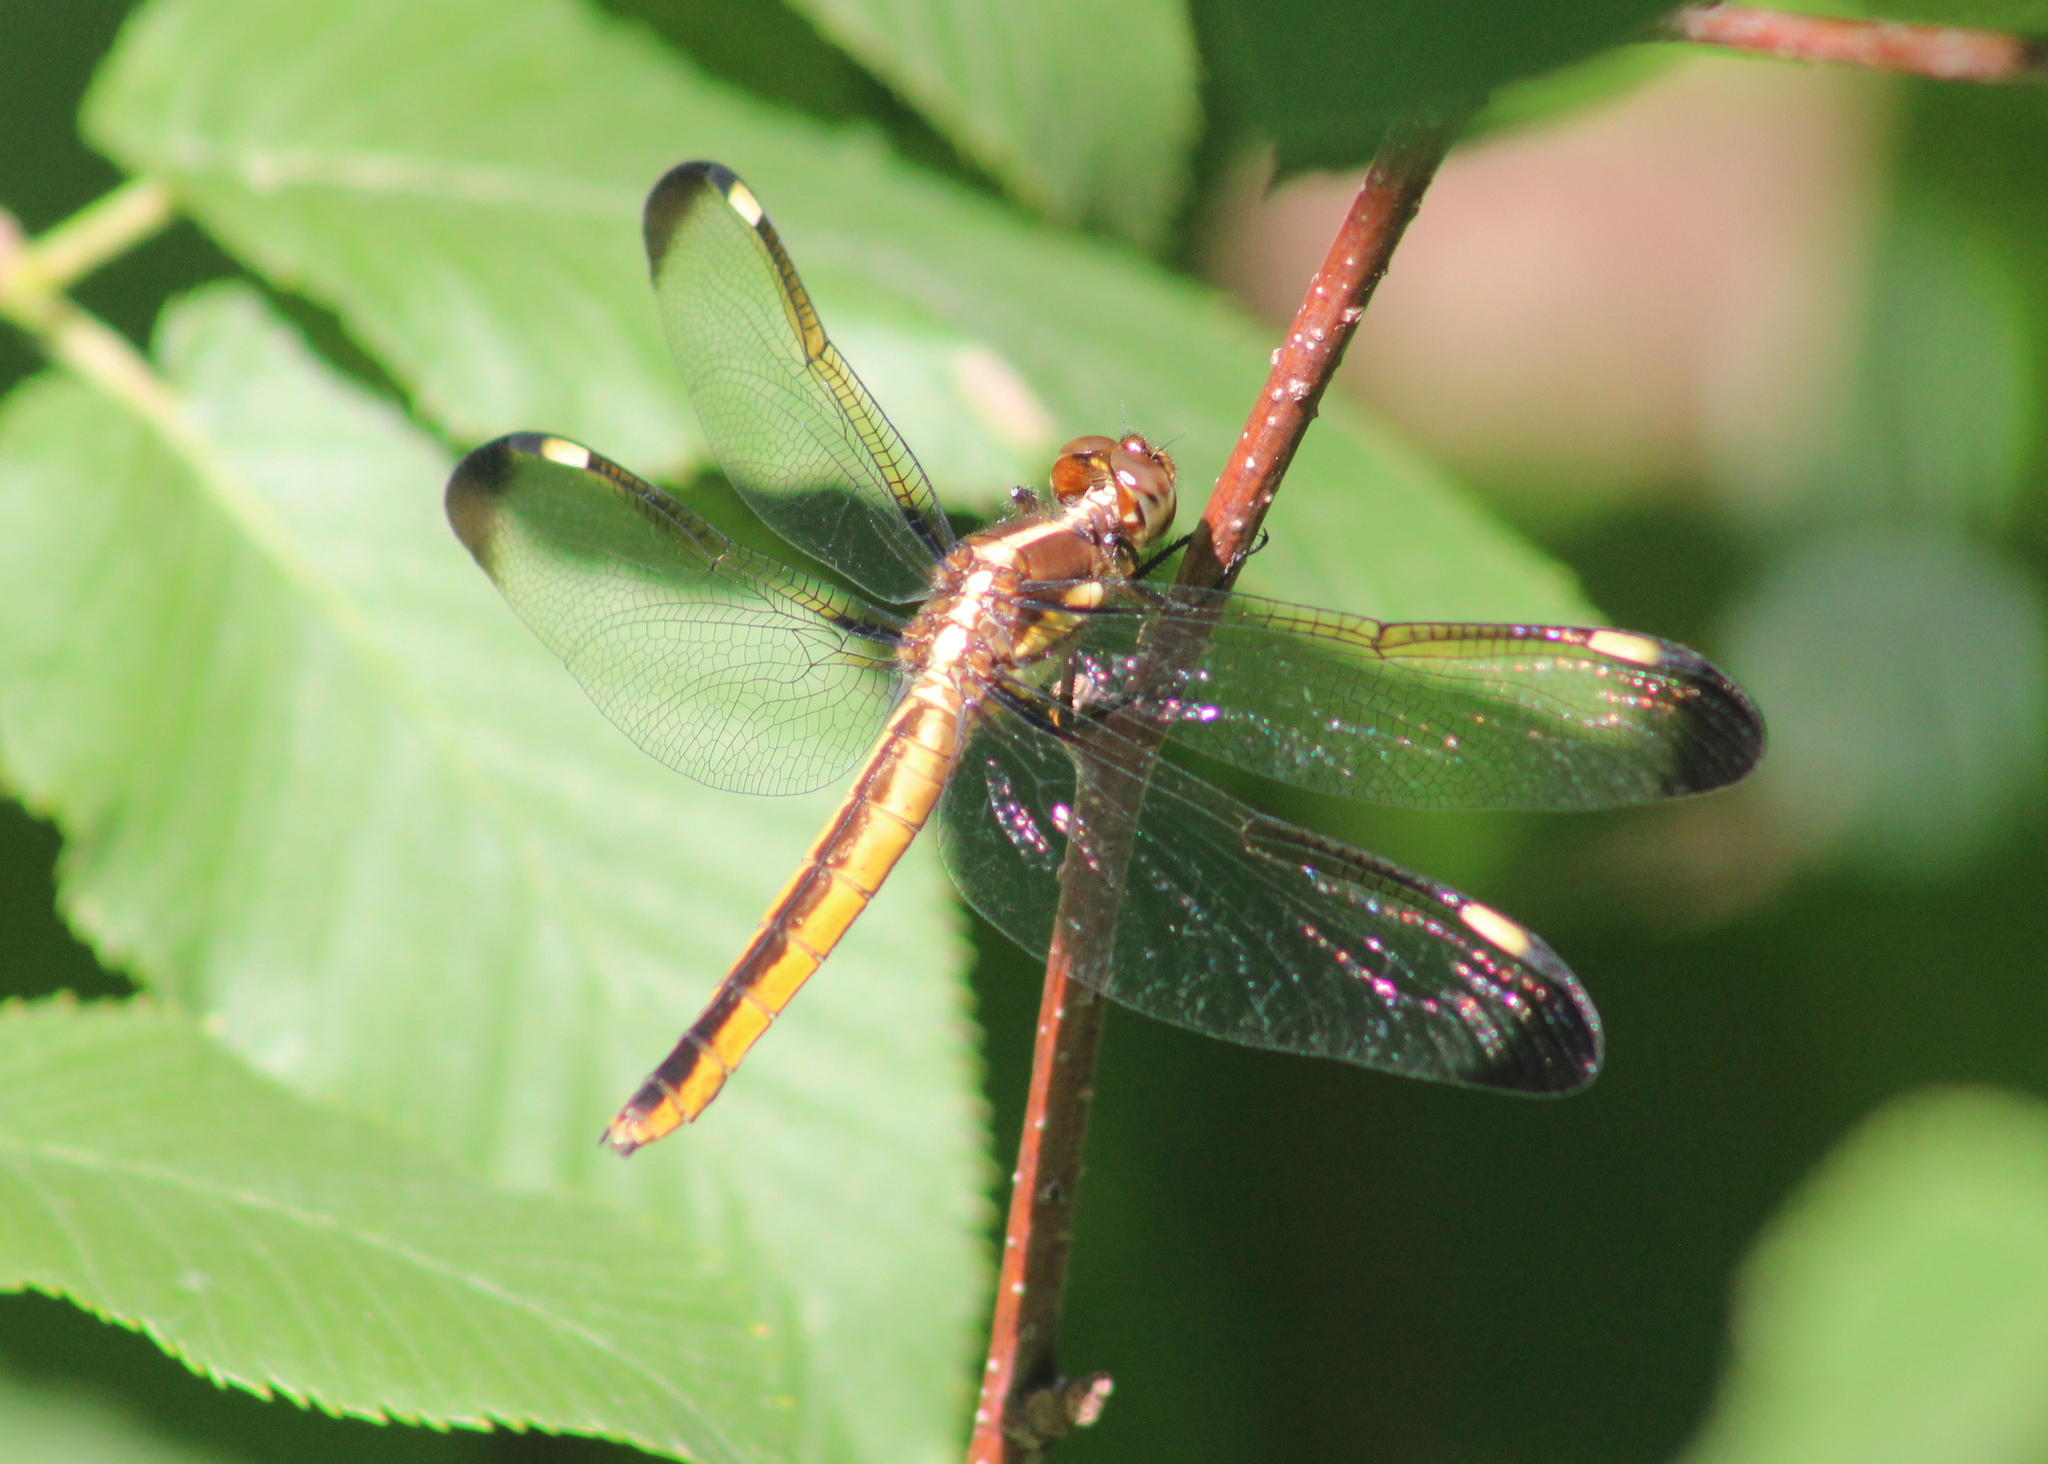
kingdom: Animalia
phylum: Arthropoda
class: Insecta
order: Odonata
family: Libellulidae
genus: Libellula
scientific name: Libellula cyanea
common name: Spangled skimmer
